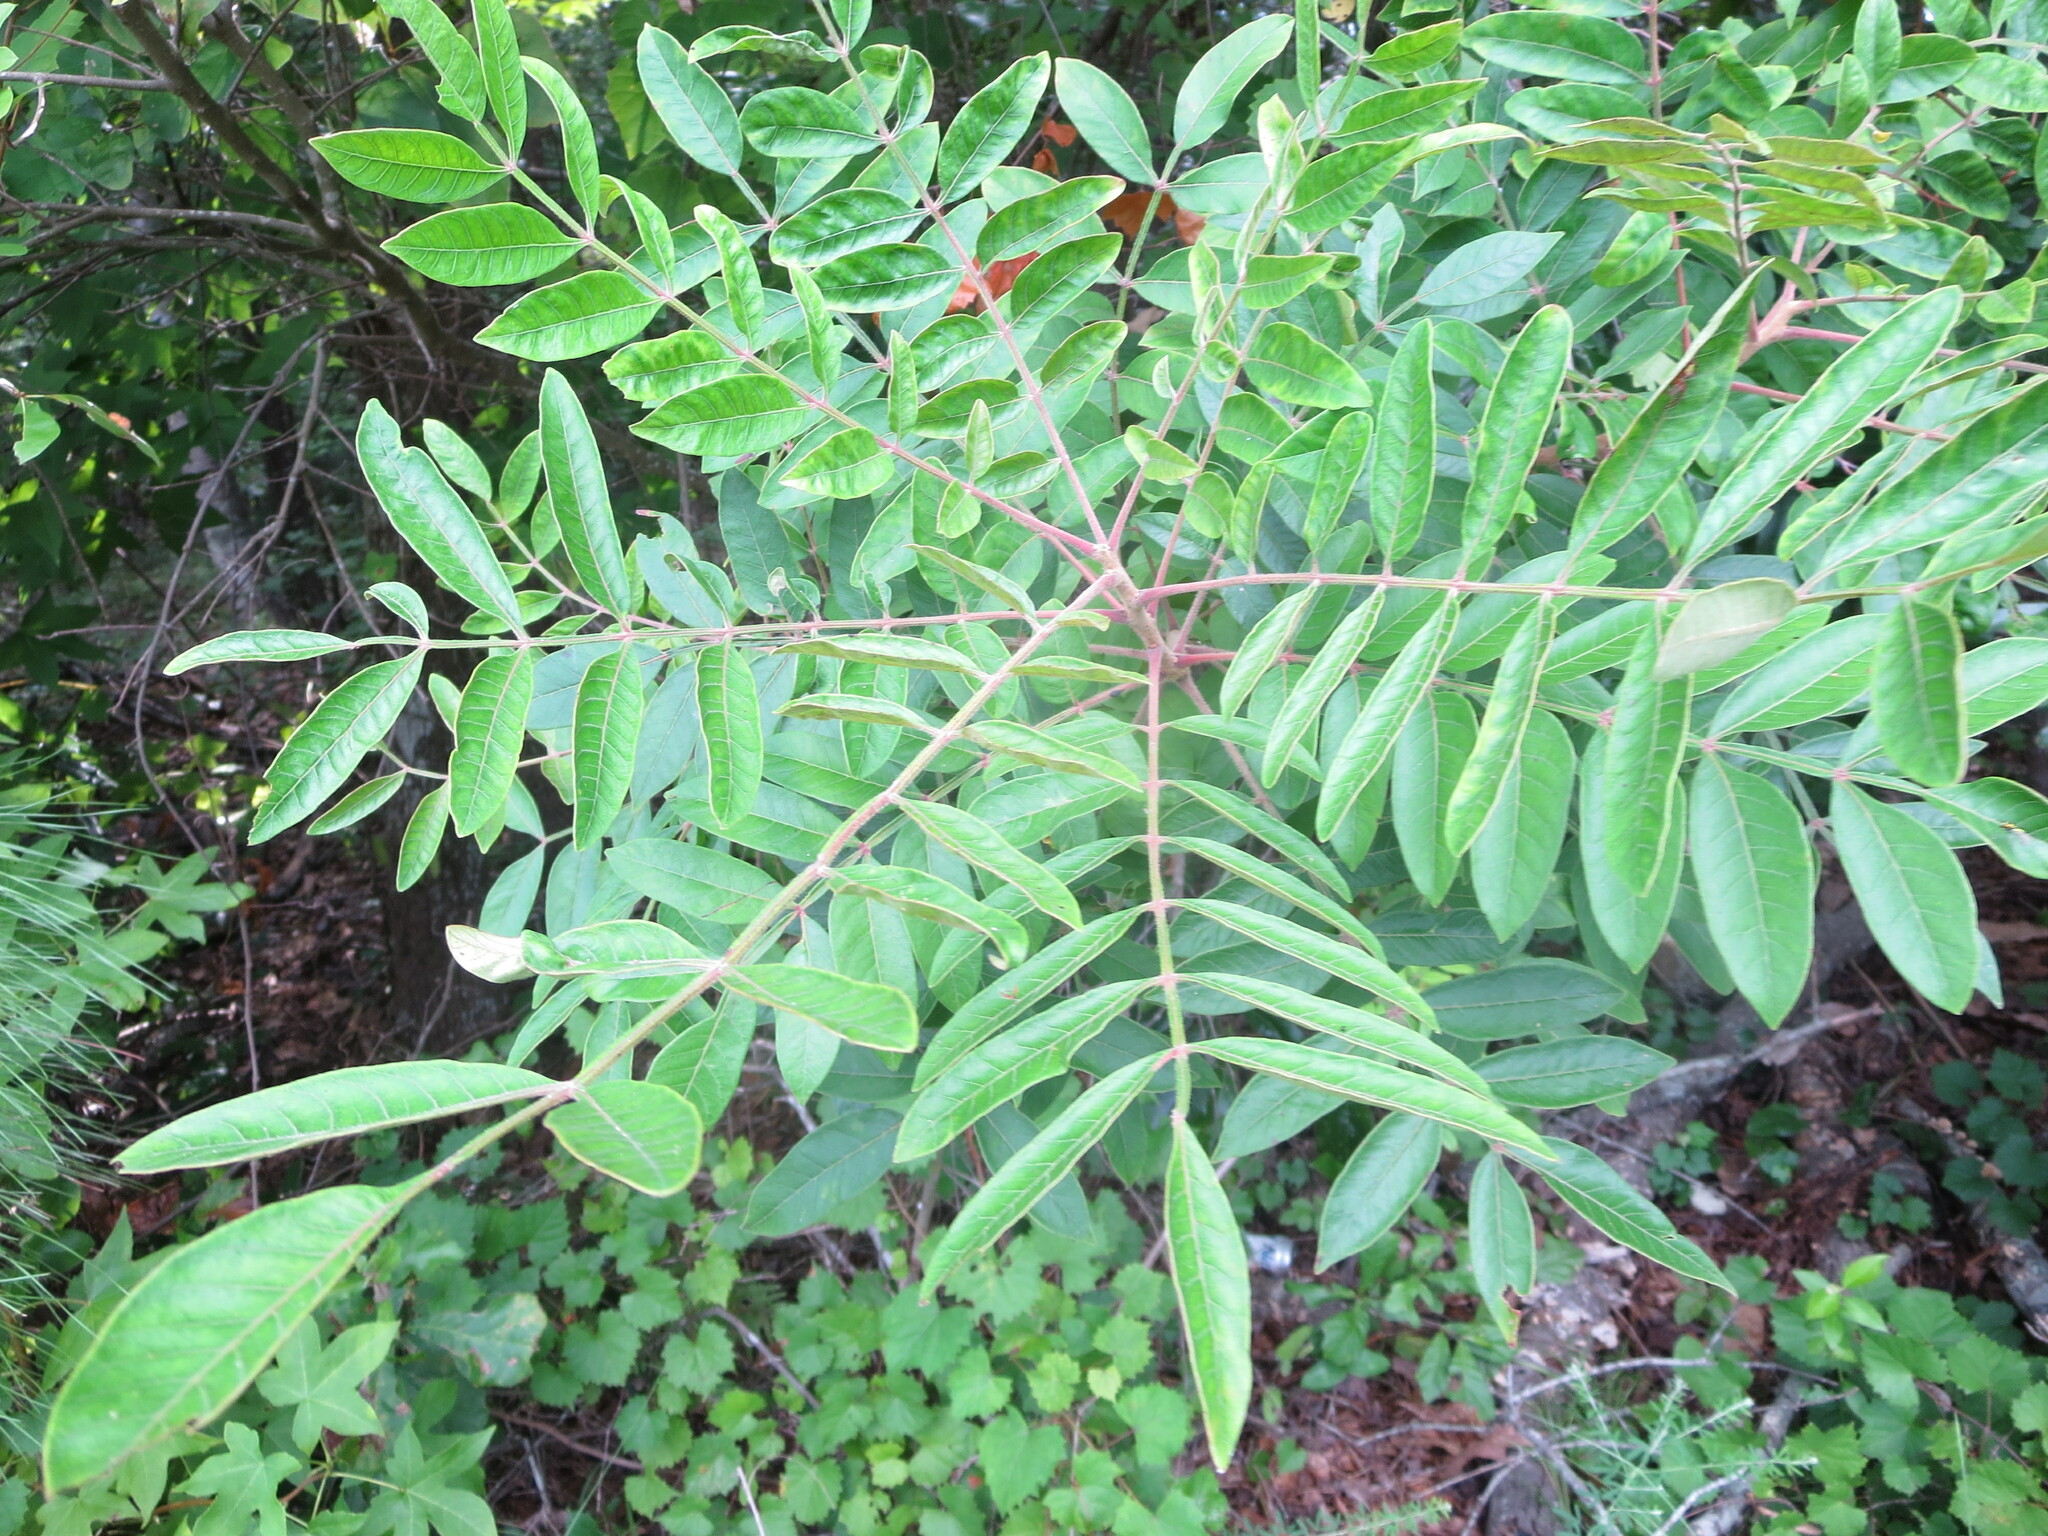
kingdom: Plantae
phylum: Tracheophyta
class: Magnoliopsida
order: Sapindales
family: Anacardiaceae
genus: Rhus
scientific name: Rhus copallina
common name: Shining sumac
